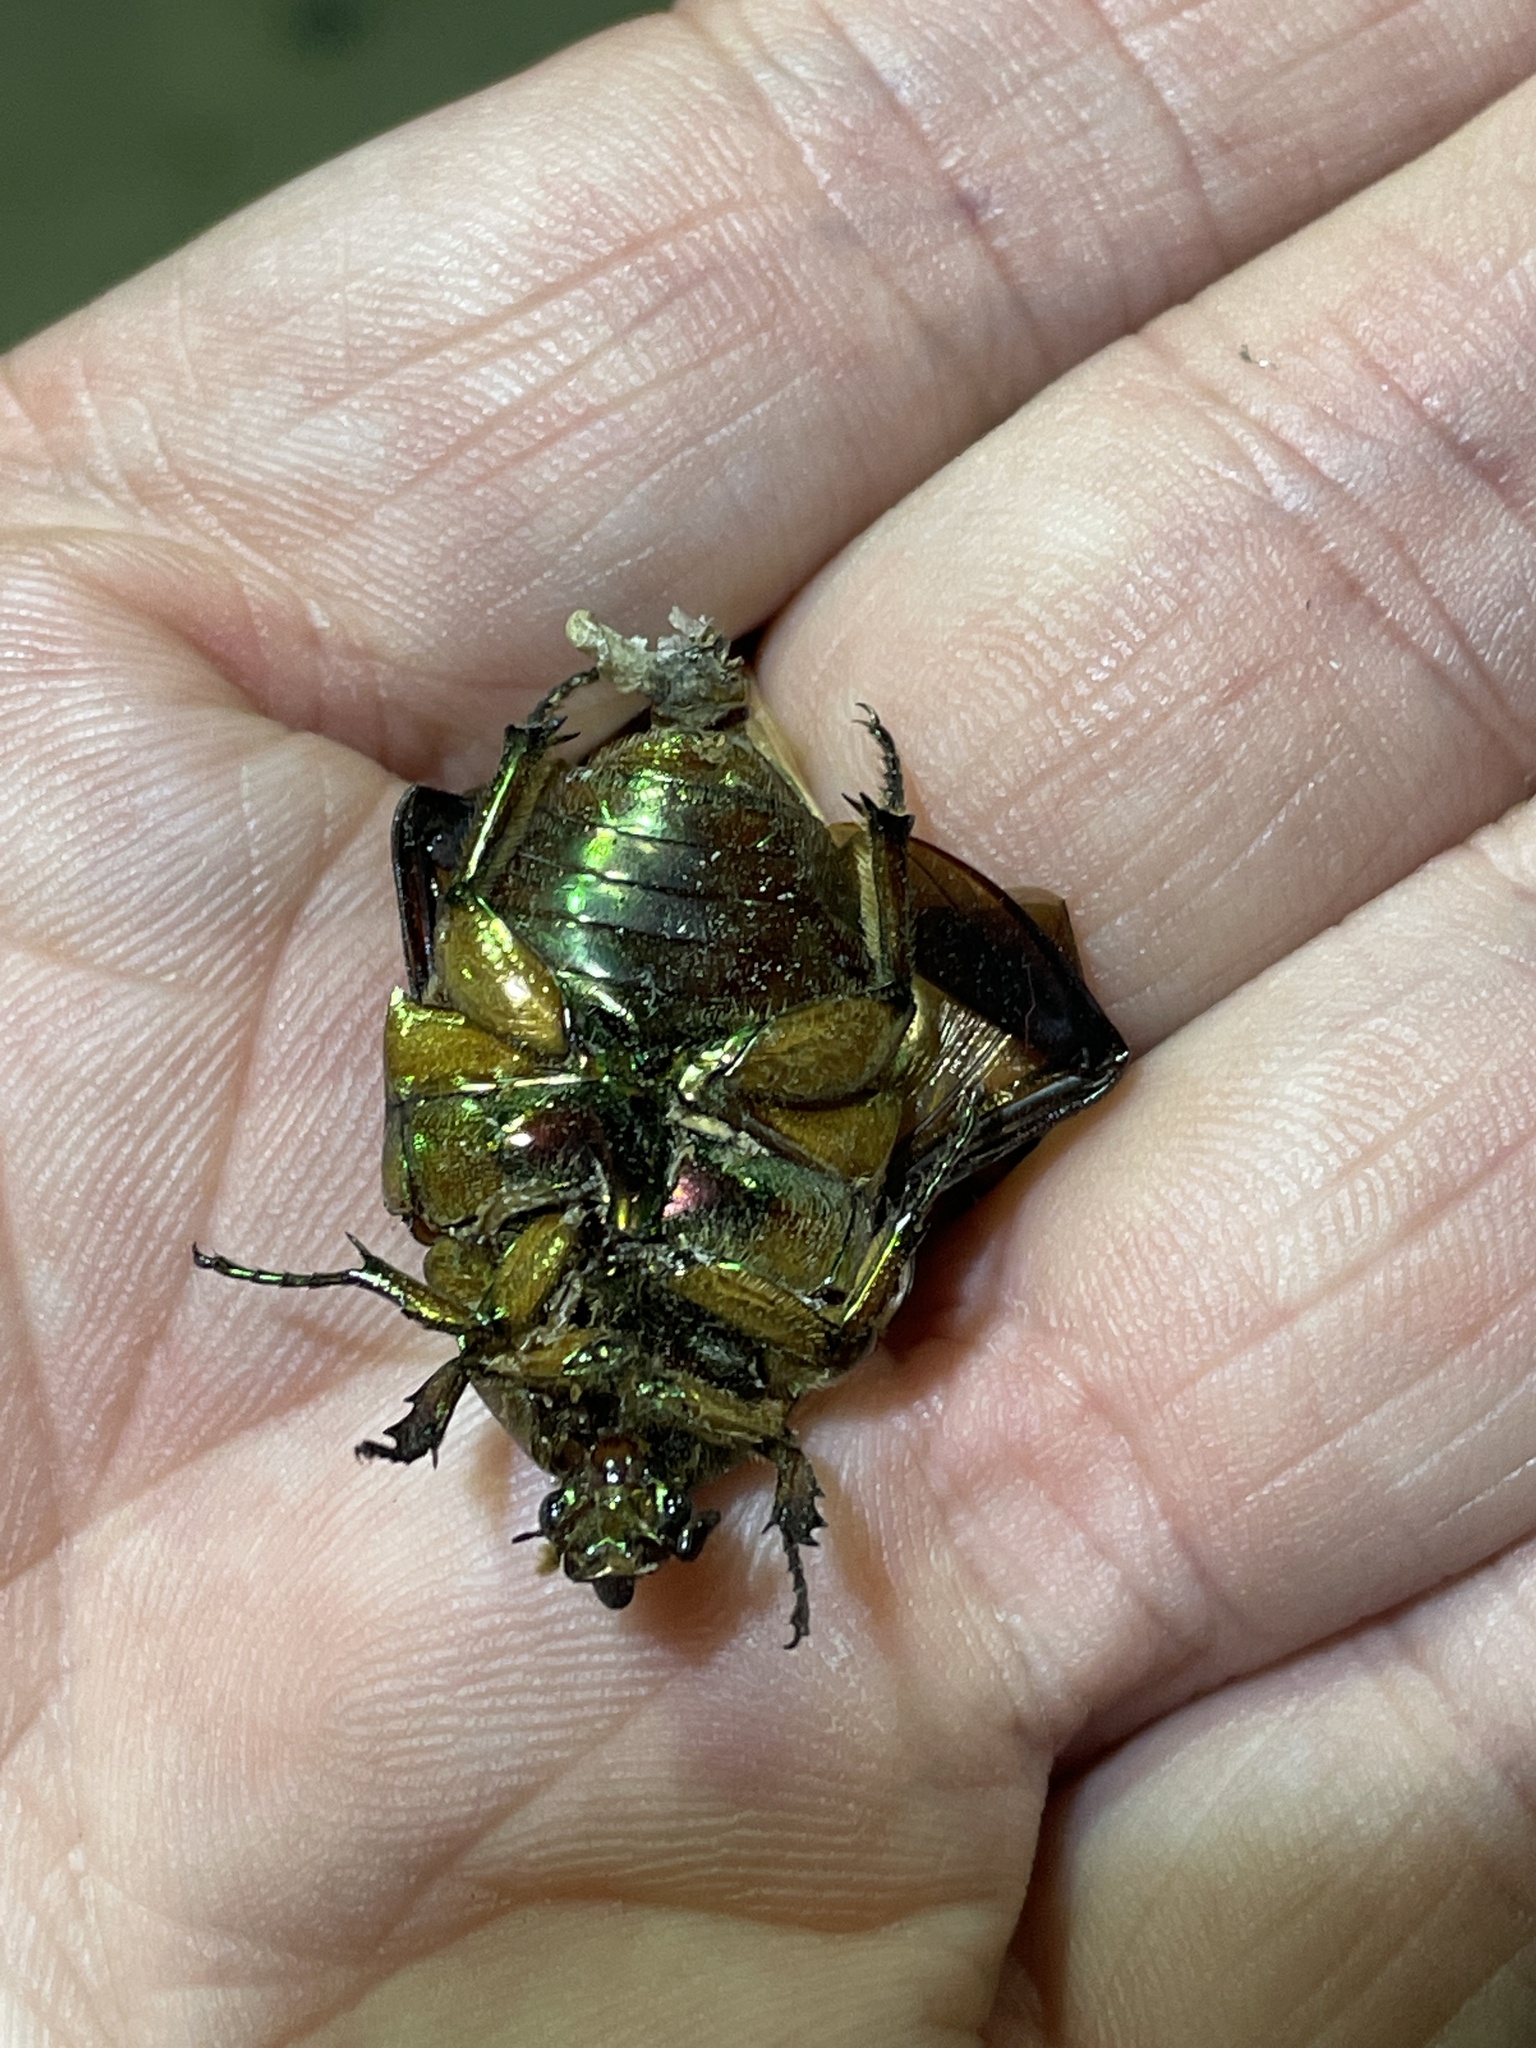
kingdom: Animalia
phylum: Arthropoda
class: Insecta
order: Coleoptera
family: Scarabaeidae
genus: Cotinis
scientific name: Cotinis nitida
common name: Common green june beetle
